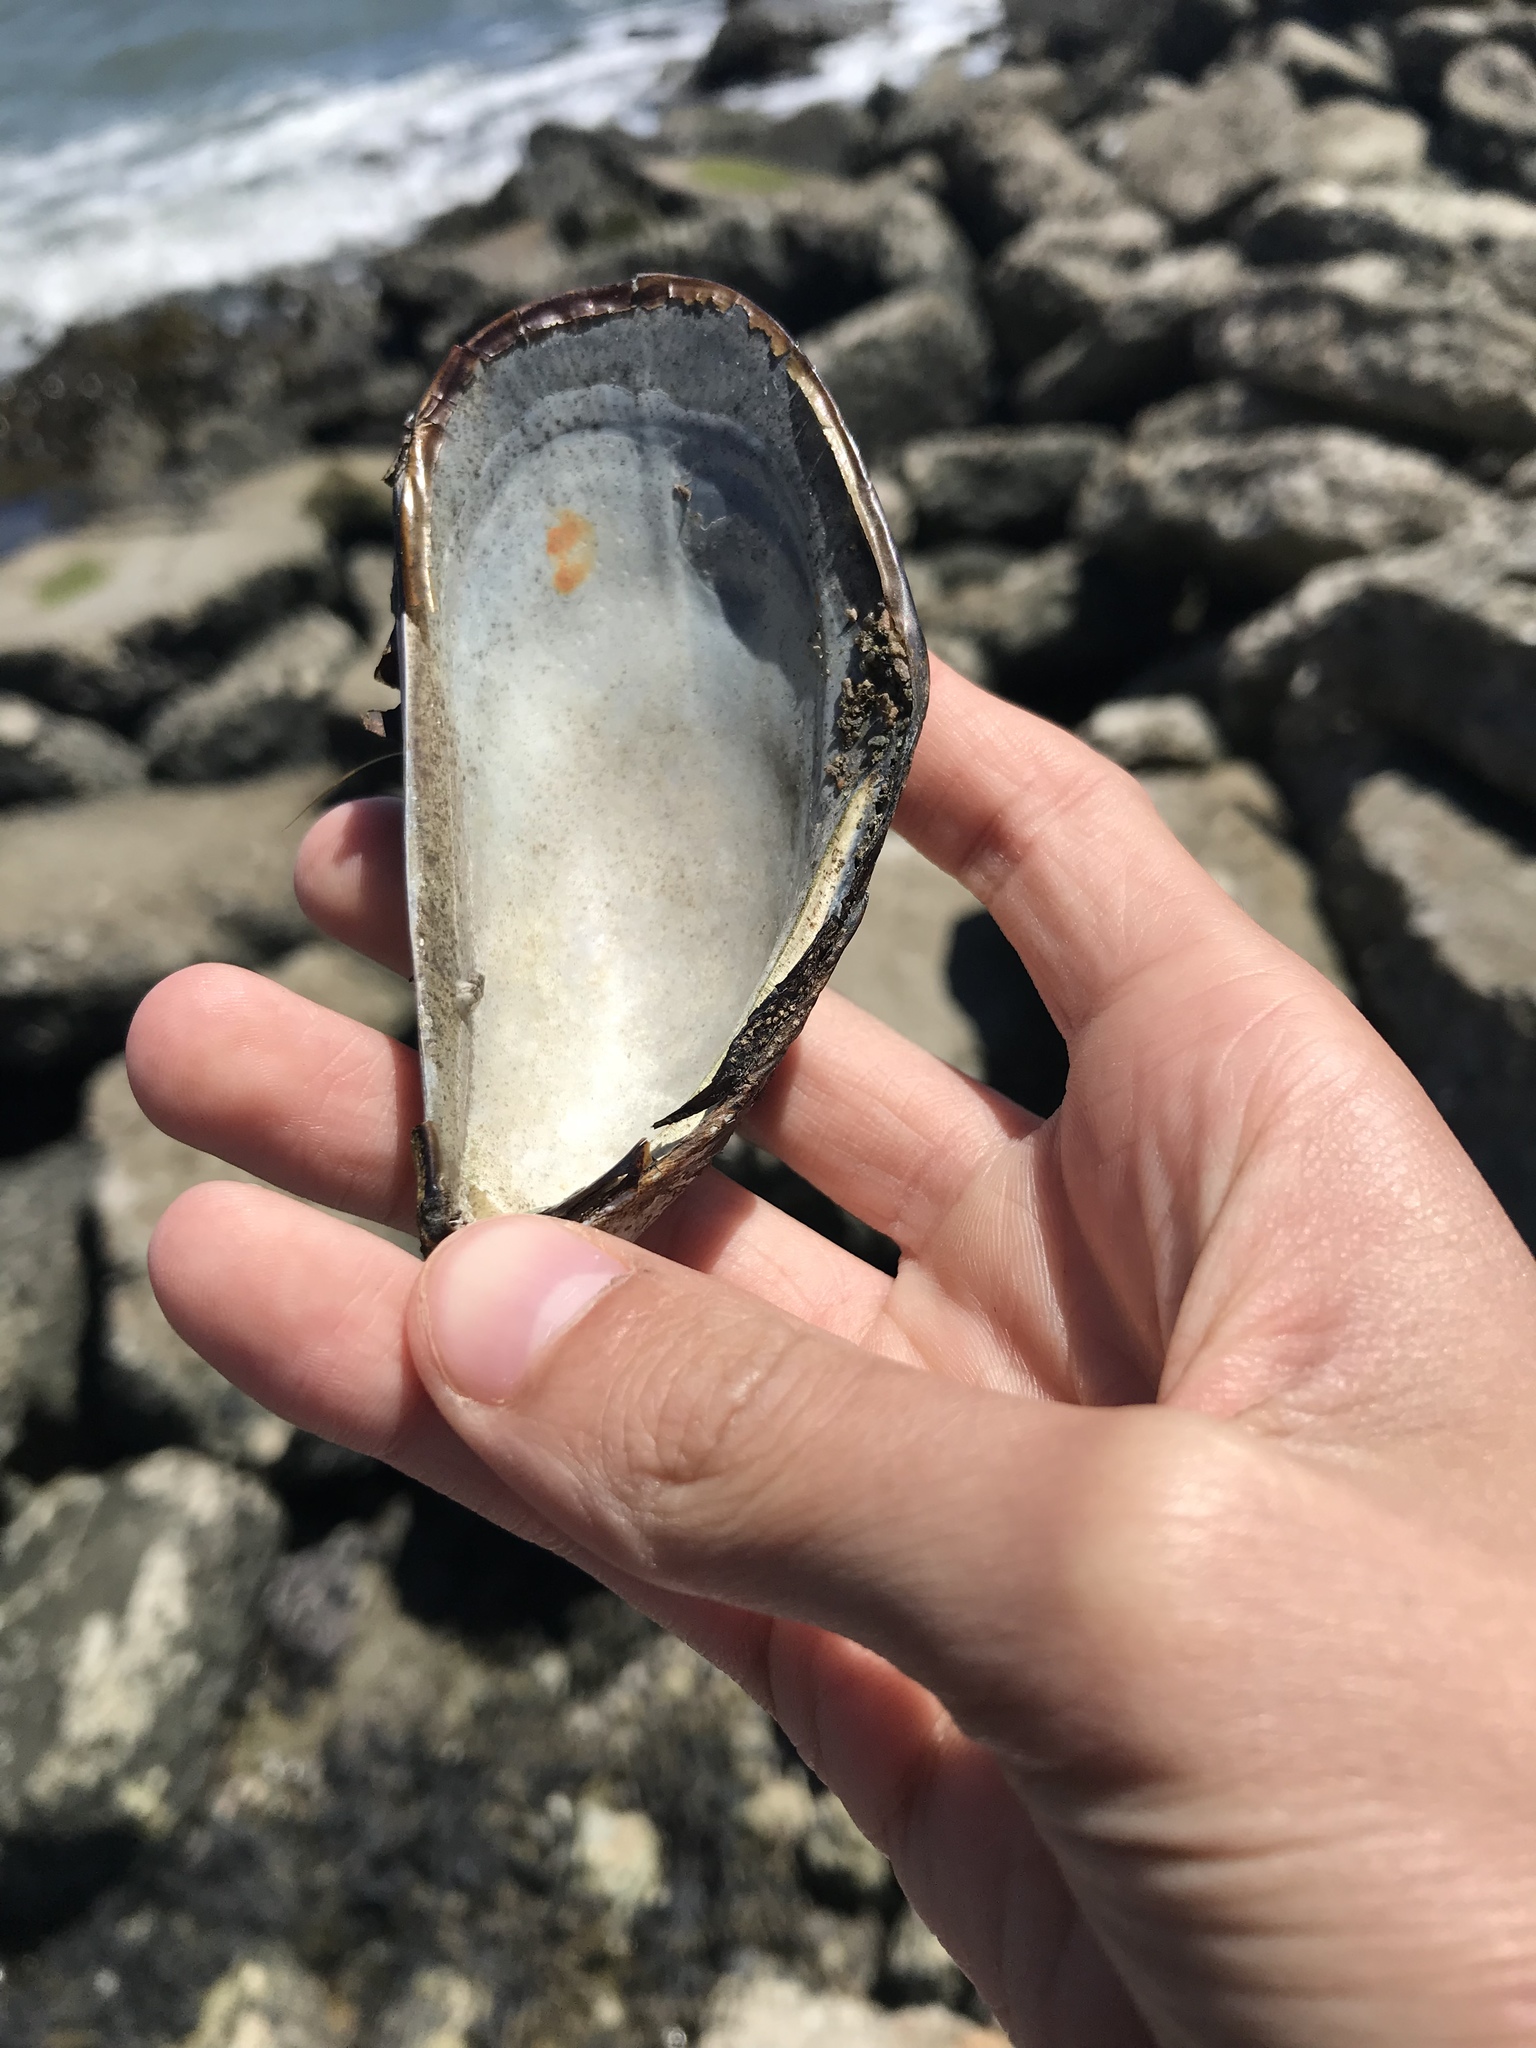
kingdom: Animalia
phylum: Mollusca
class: Bivalvia
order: Mytilida
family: Mytilidae
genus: Mytilus
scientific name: Mytilus californianus
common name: California mussel
